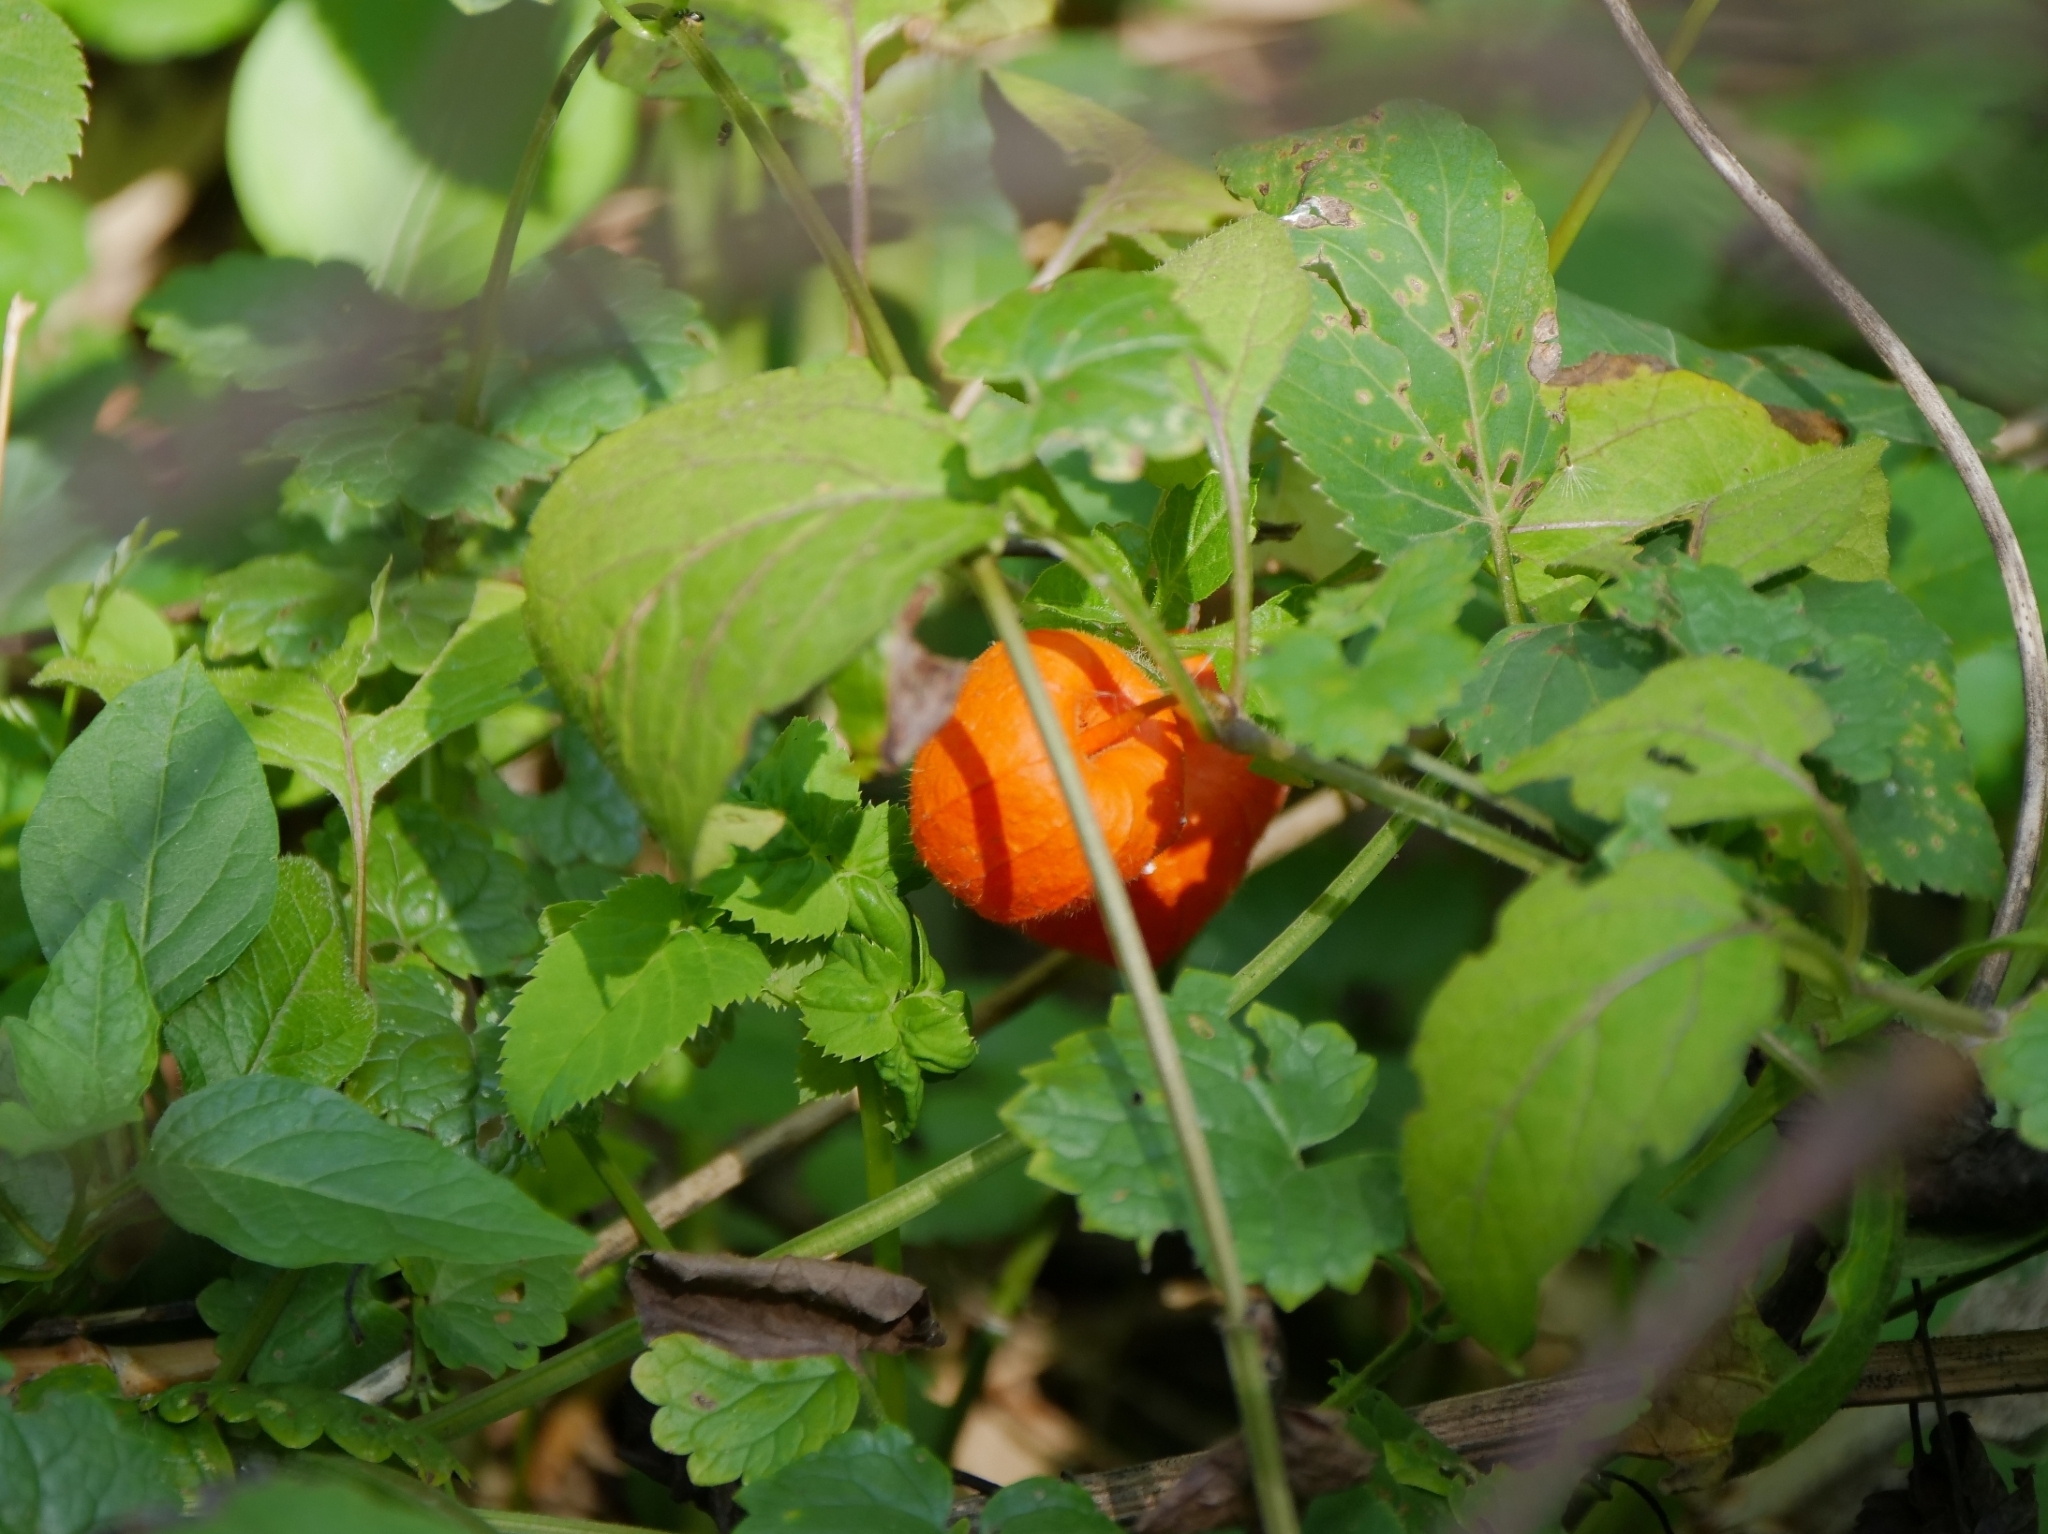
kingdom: Plantae
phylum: Tracheophyta
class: Magnoliopsida
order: Solanales
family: Solanaceae
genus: Alkekengi
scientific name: Alkekengi officinarum
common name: Japanese-lantern
